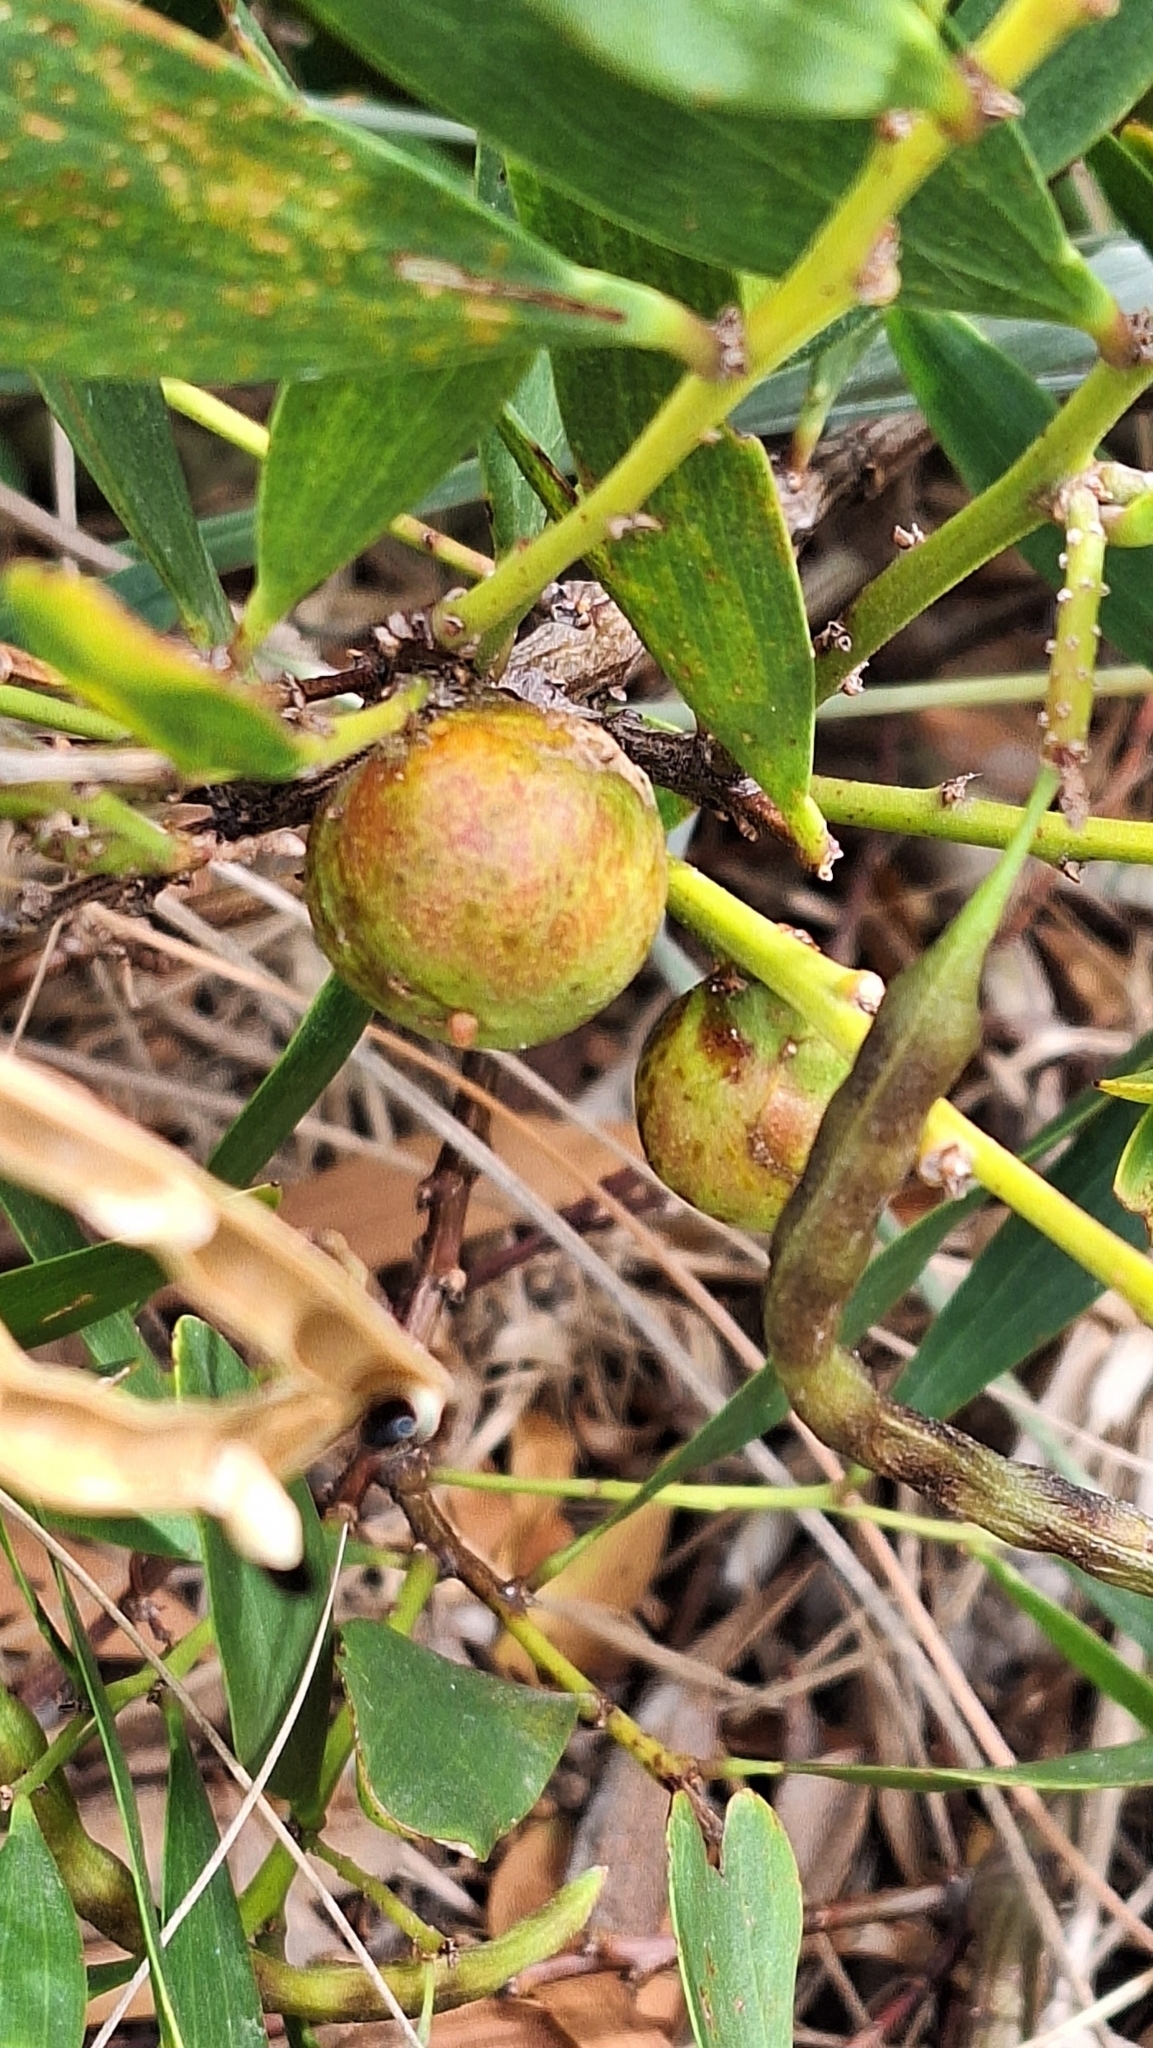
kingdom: Animalia
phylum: Arthropoda
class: Insecta
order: Hymenoptera
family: Pteromalidae
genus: Trichilogaster
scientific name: Trichilogaster acaciaelongifoliae
